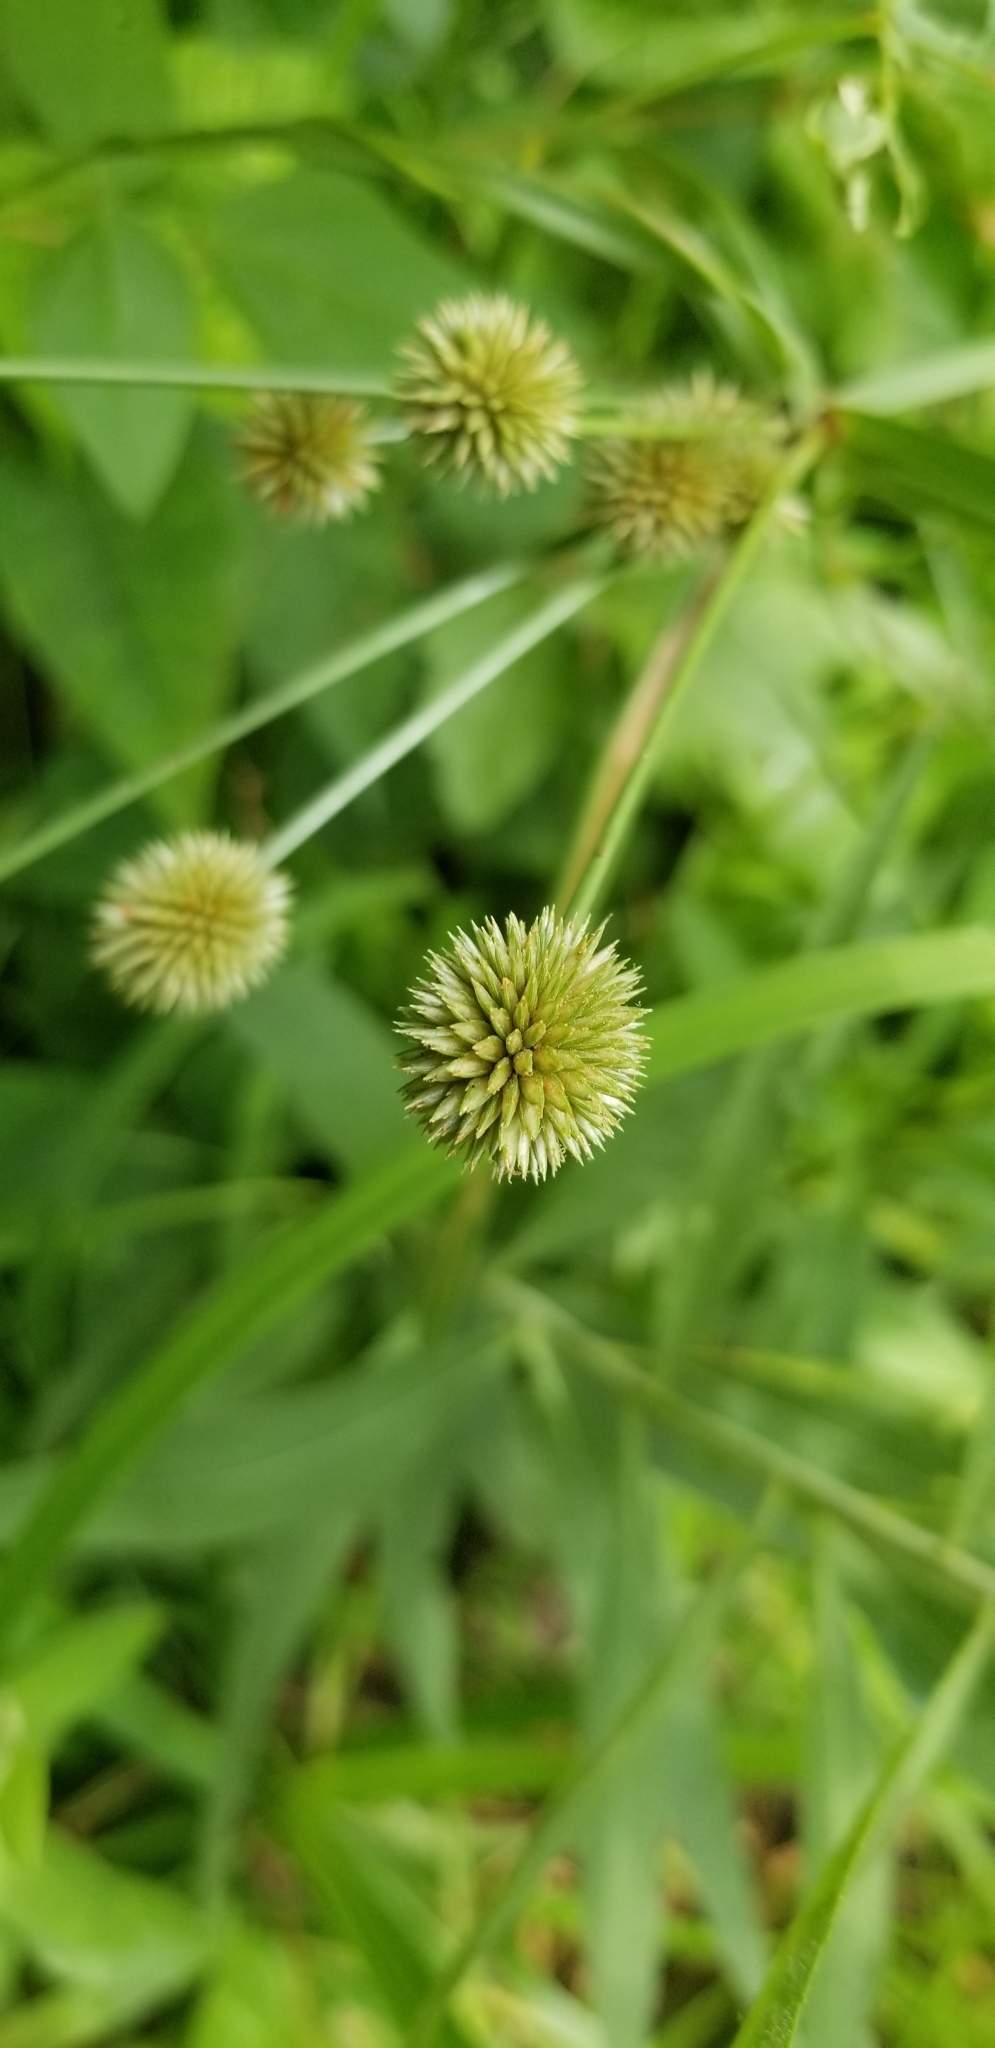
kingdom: Plantae
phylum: Tracheophyta
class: Liliopsida
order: Poales
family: Cyperaceae
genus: Cyperus
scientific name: Cyperus echinatus
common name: Teasel sedge
